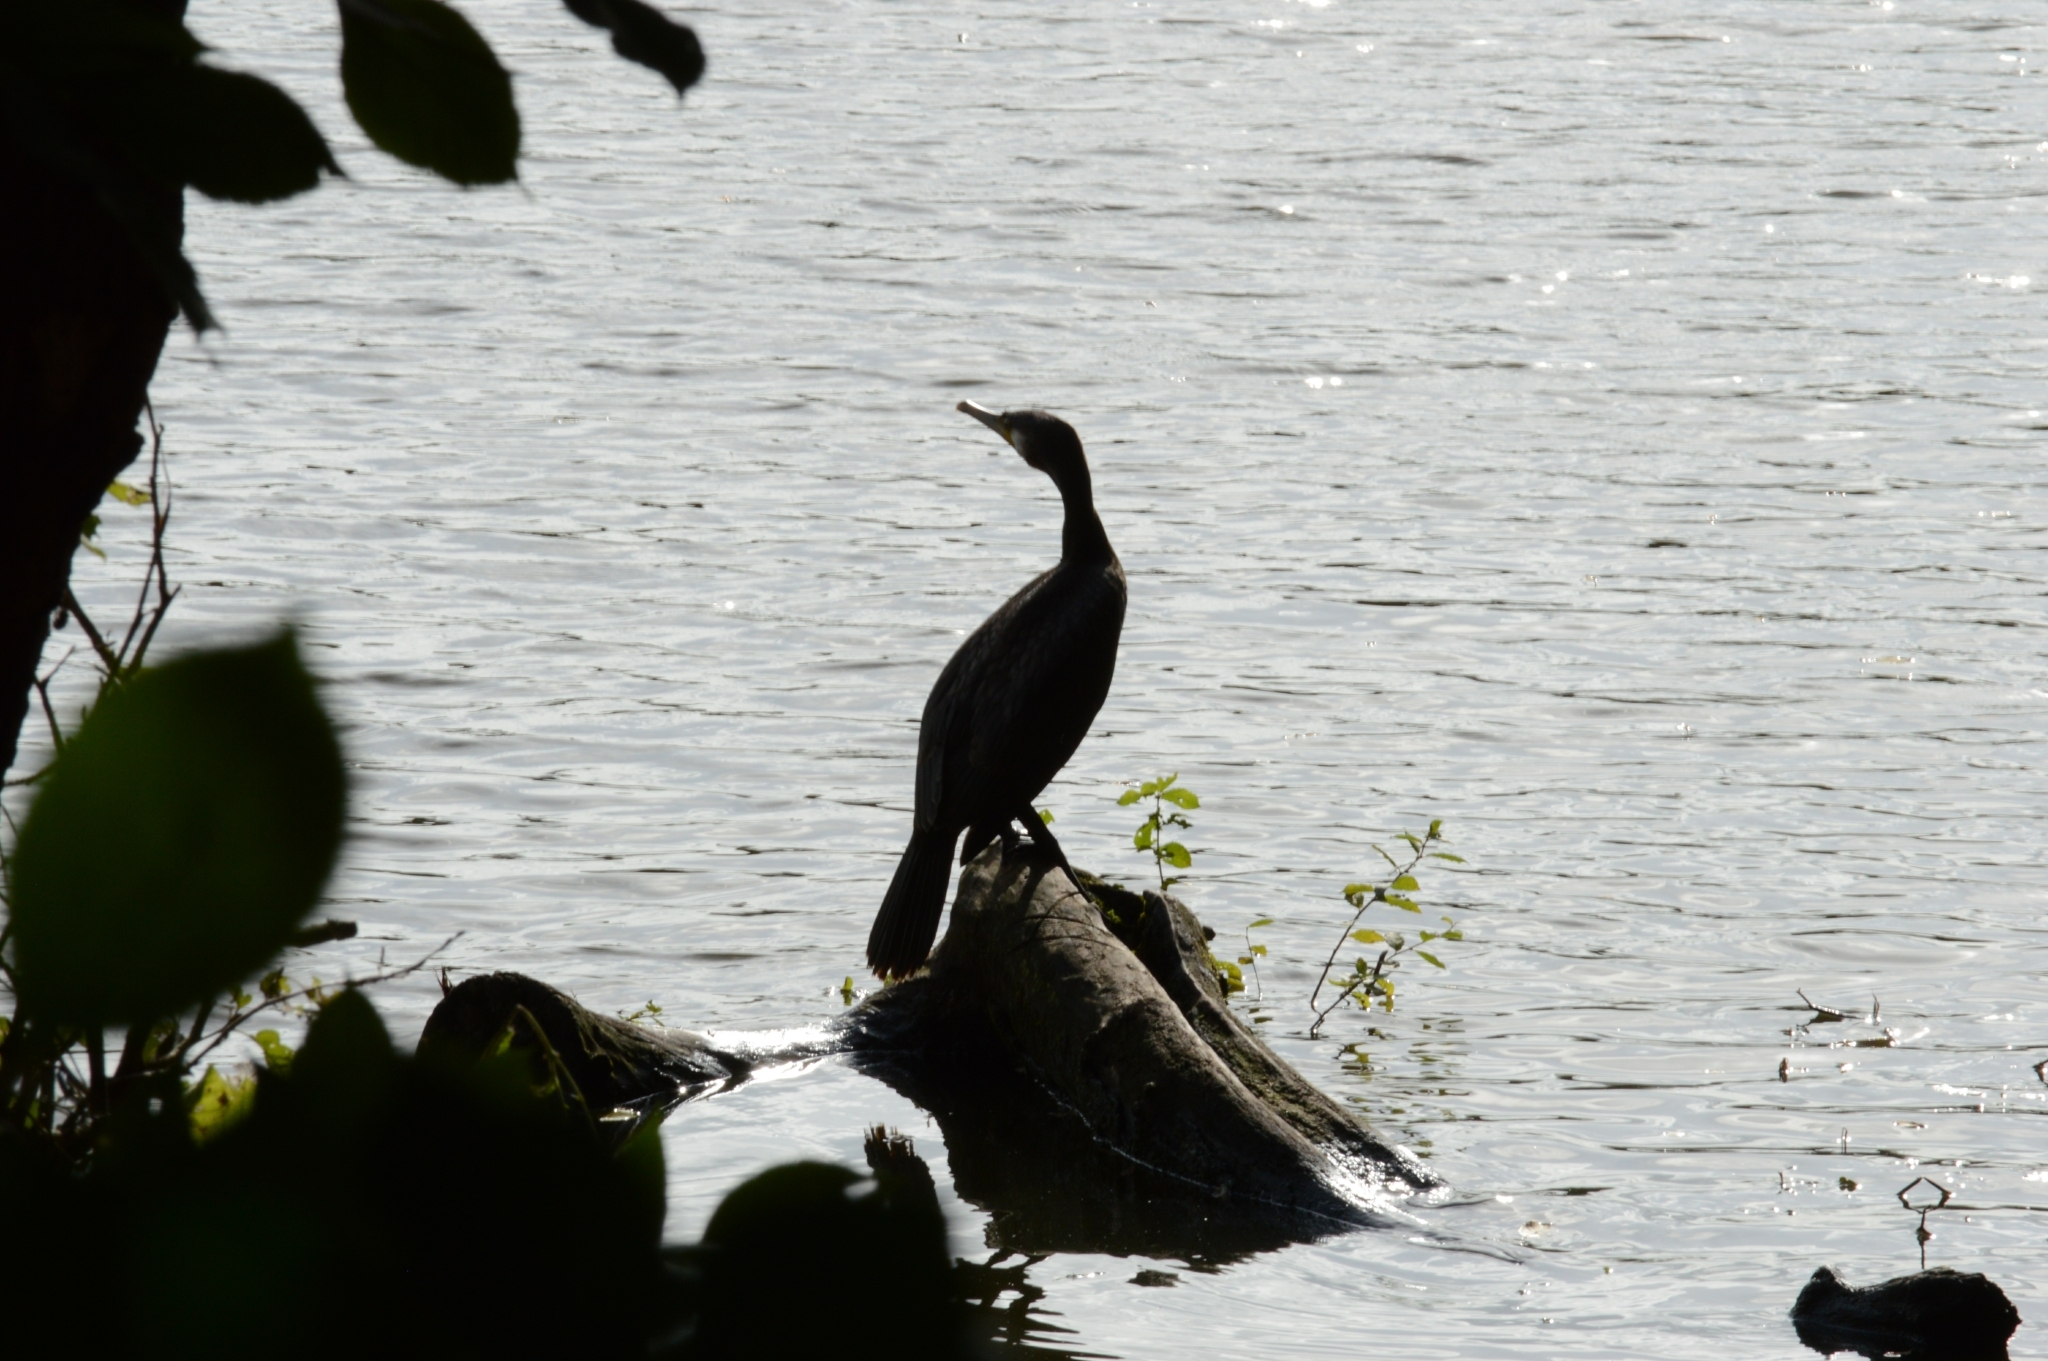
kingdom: Animalia
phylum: Chordata
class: Aves
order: Suliformes
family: Phalacrocoracidae
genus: Phalacrocorax
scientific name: Phalacrocorax carbo
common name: Great cormorant
